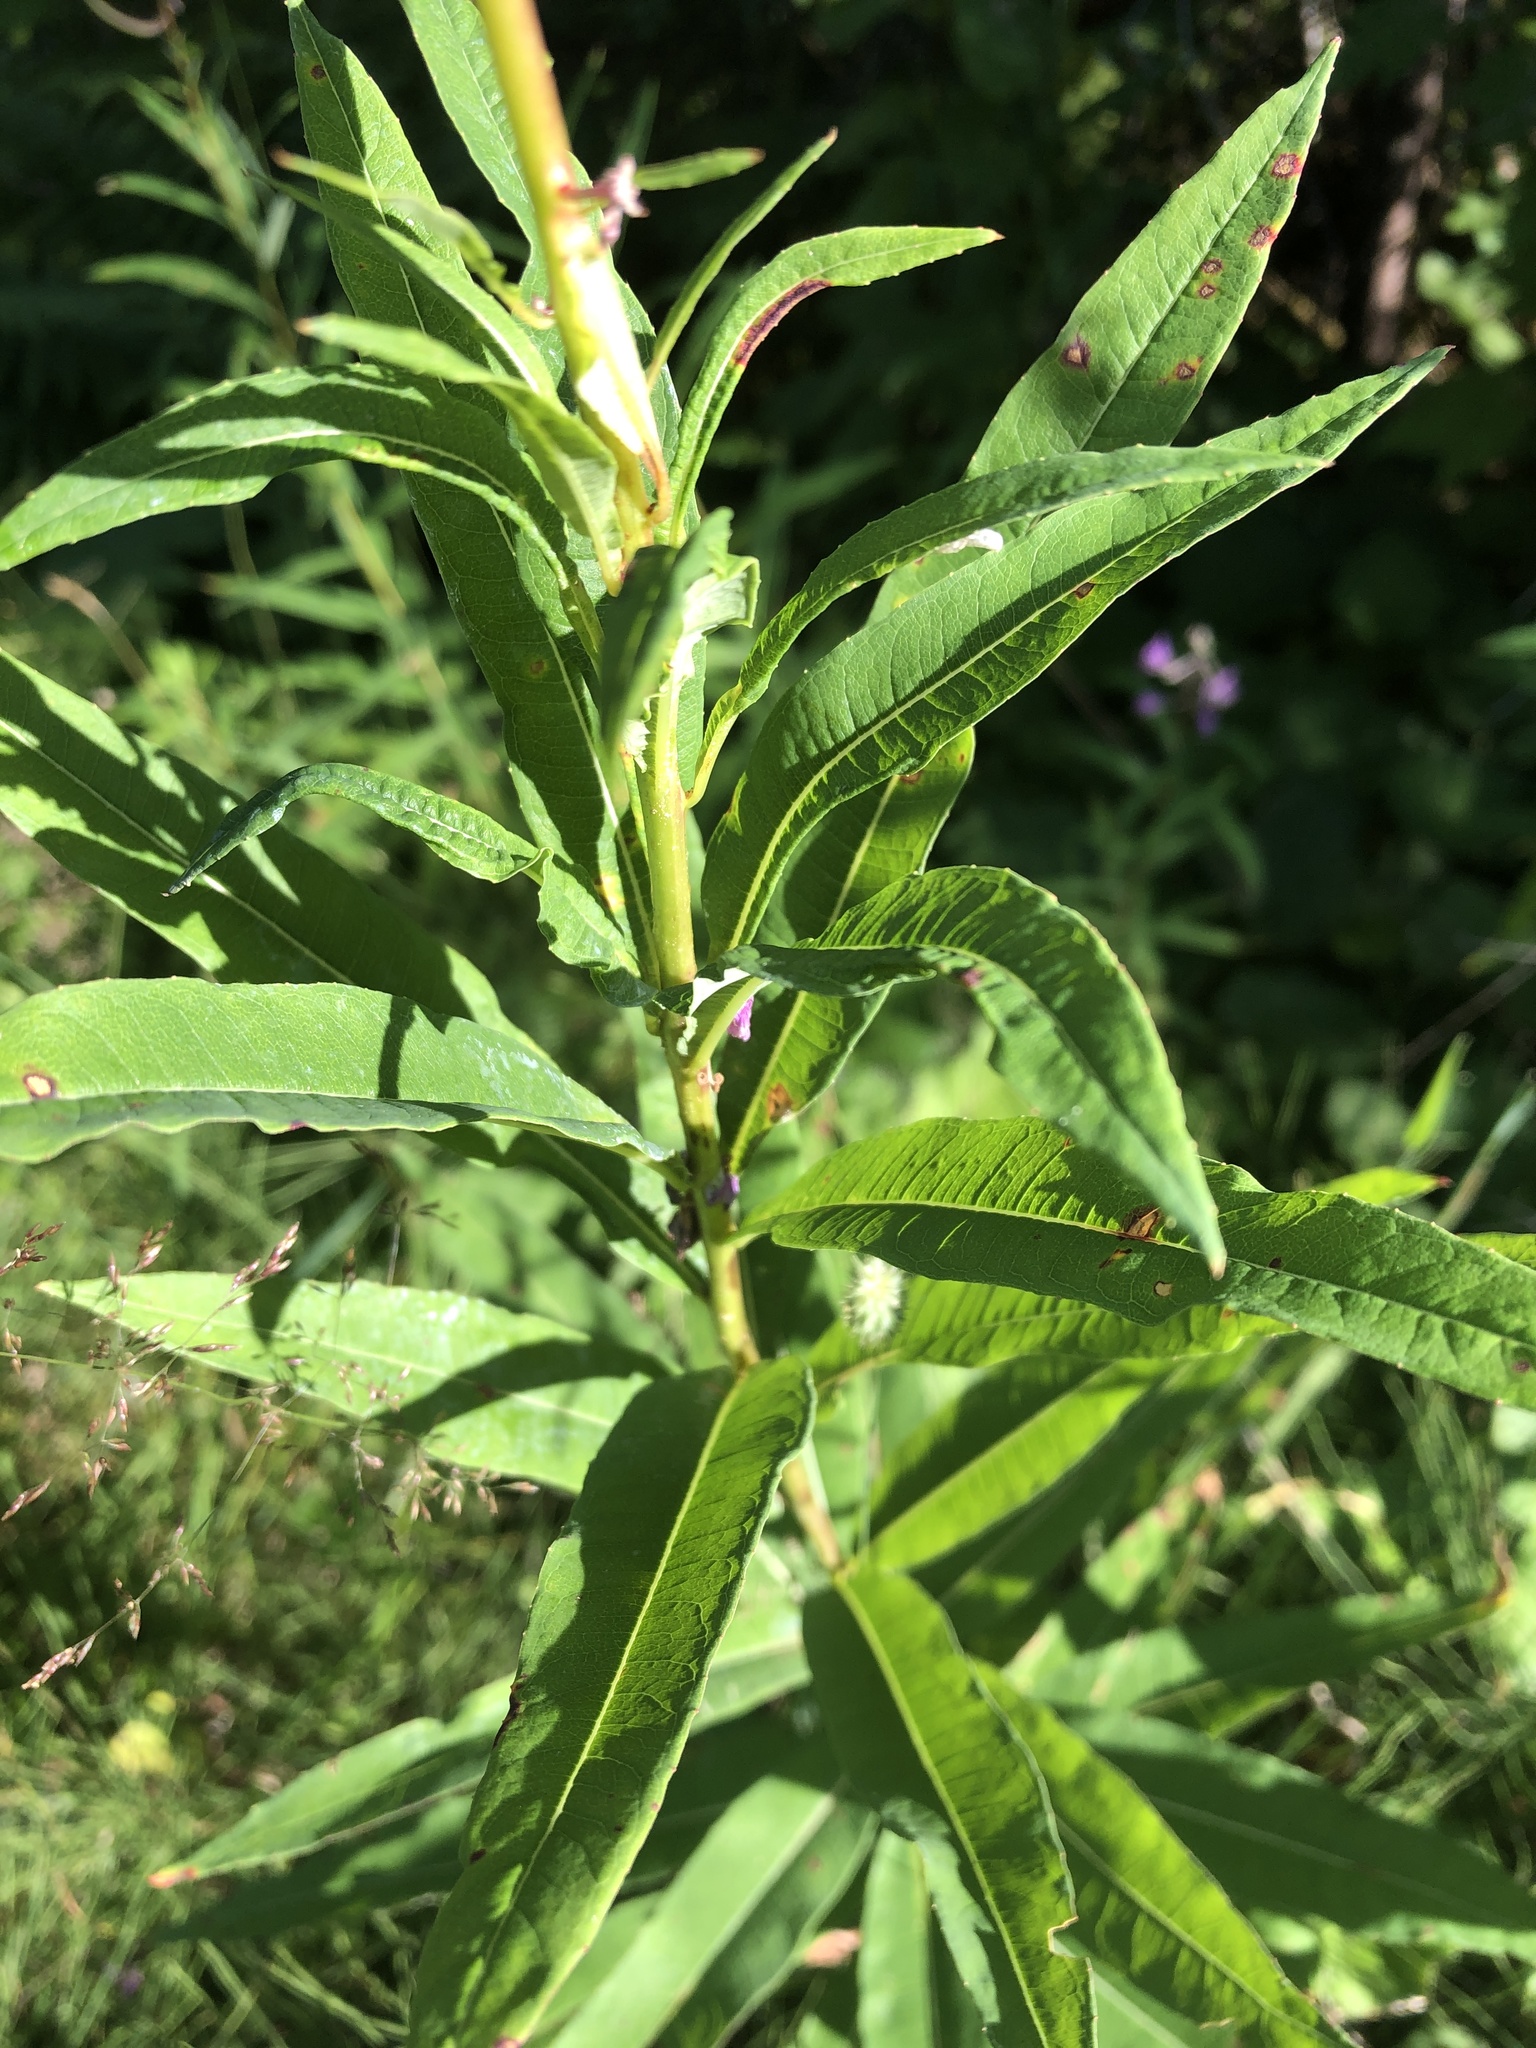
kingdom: Plantae
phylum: Tracheophyta
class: Magnoliopsida
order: Myrtales
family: Onagraceae
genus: Chamaenerion
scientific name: Chamaenerion angustifolium
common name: Fireweed
